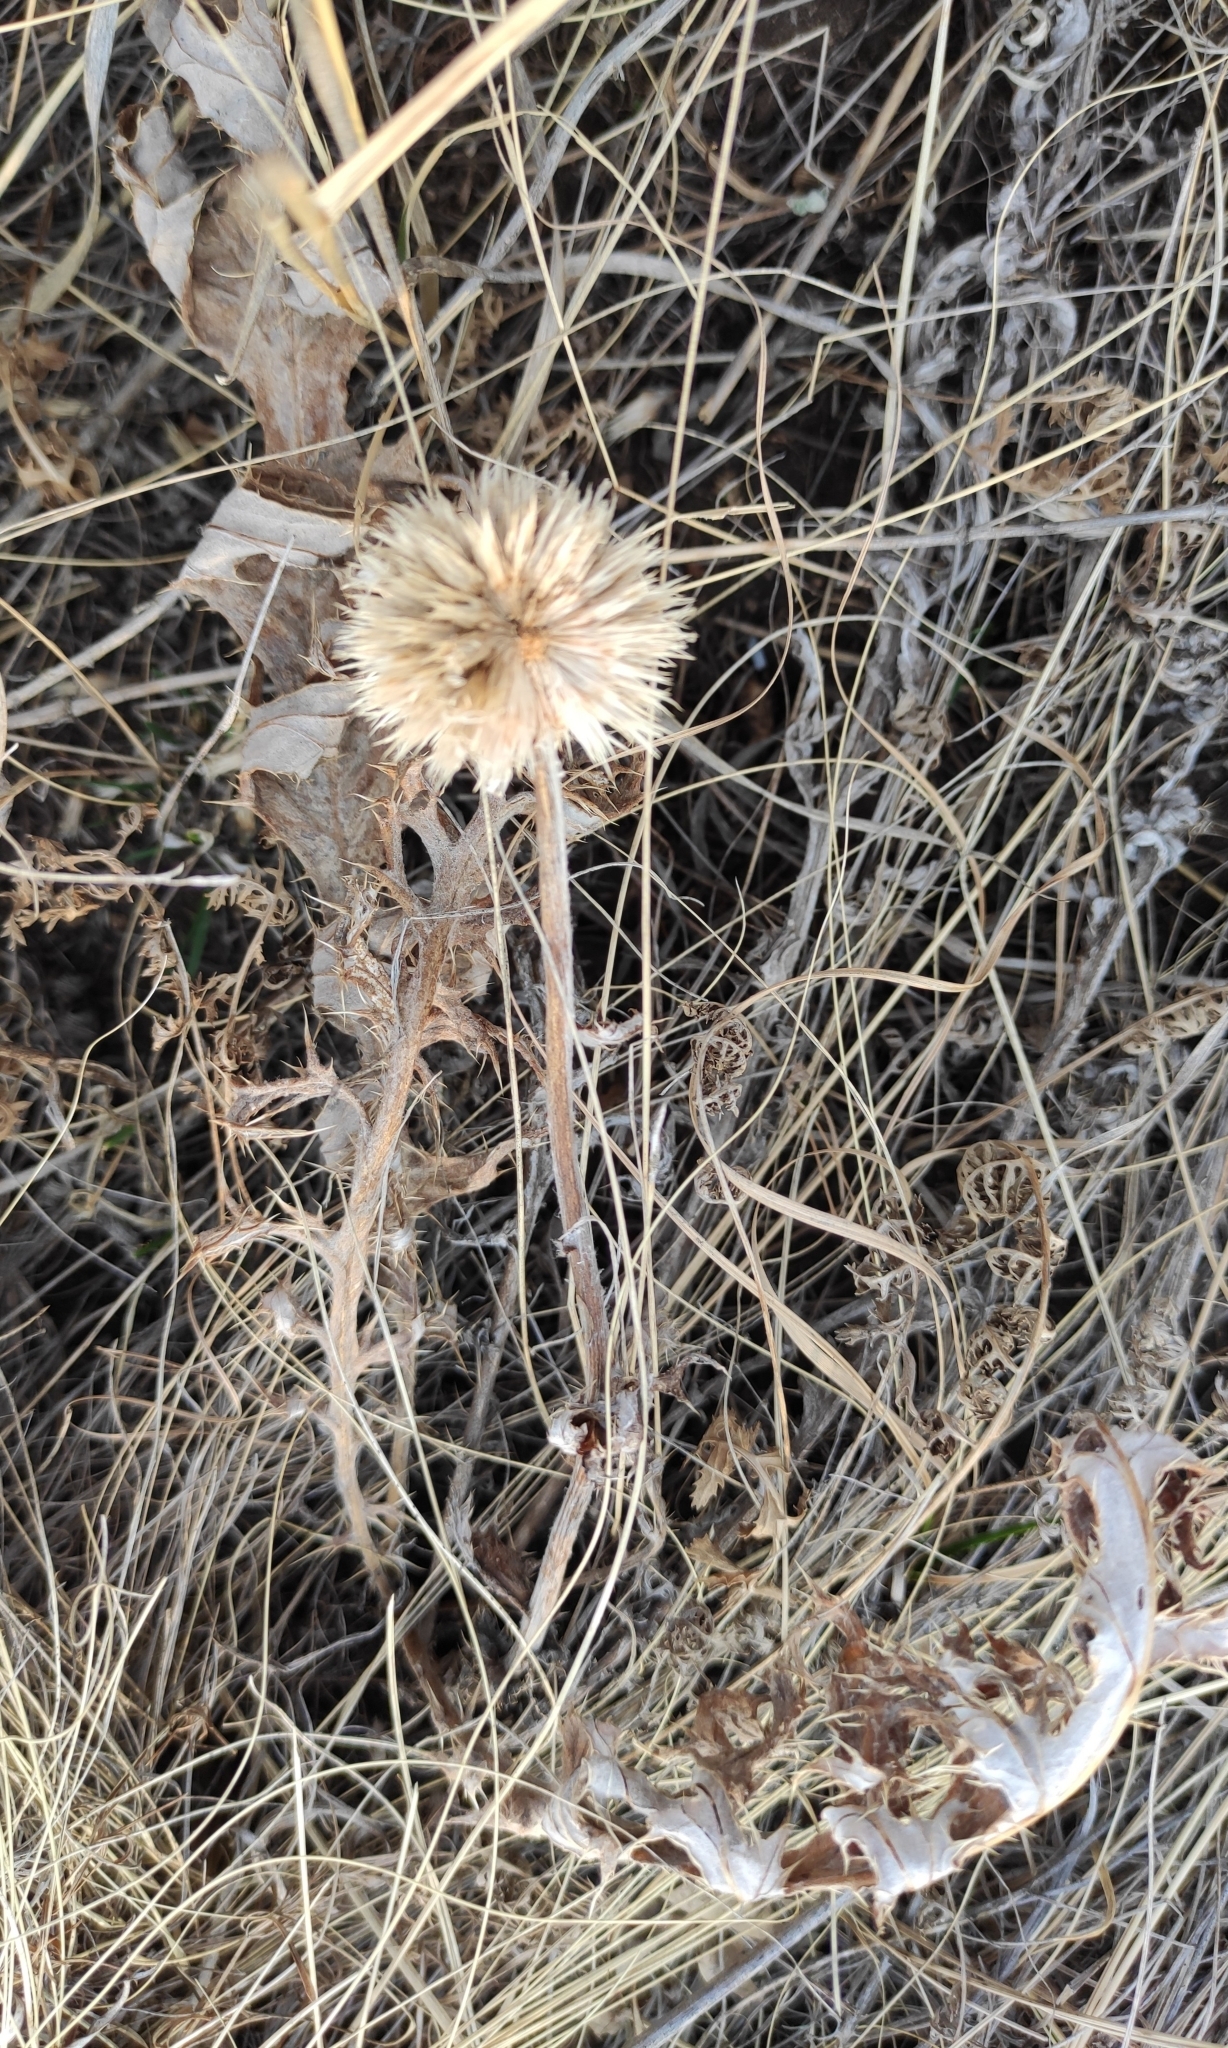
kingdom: Plantae
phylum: Tracheophyta
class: Magnoliopsida
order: Asterales
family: Asteraceae
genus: Echinops
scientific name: Echinops davuricus
